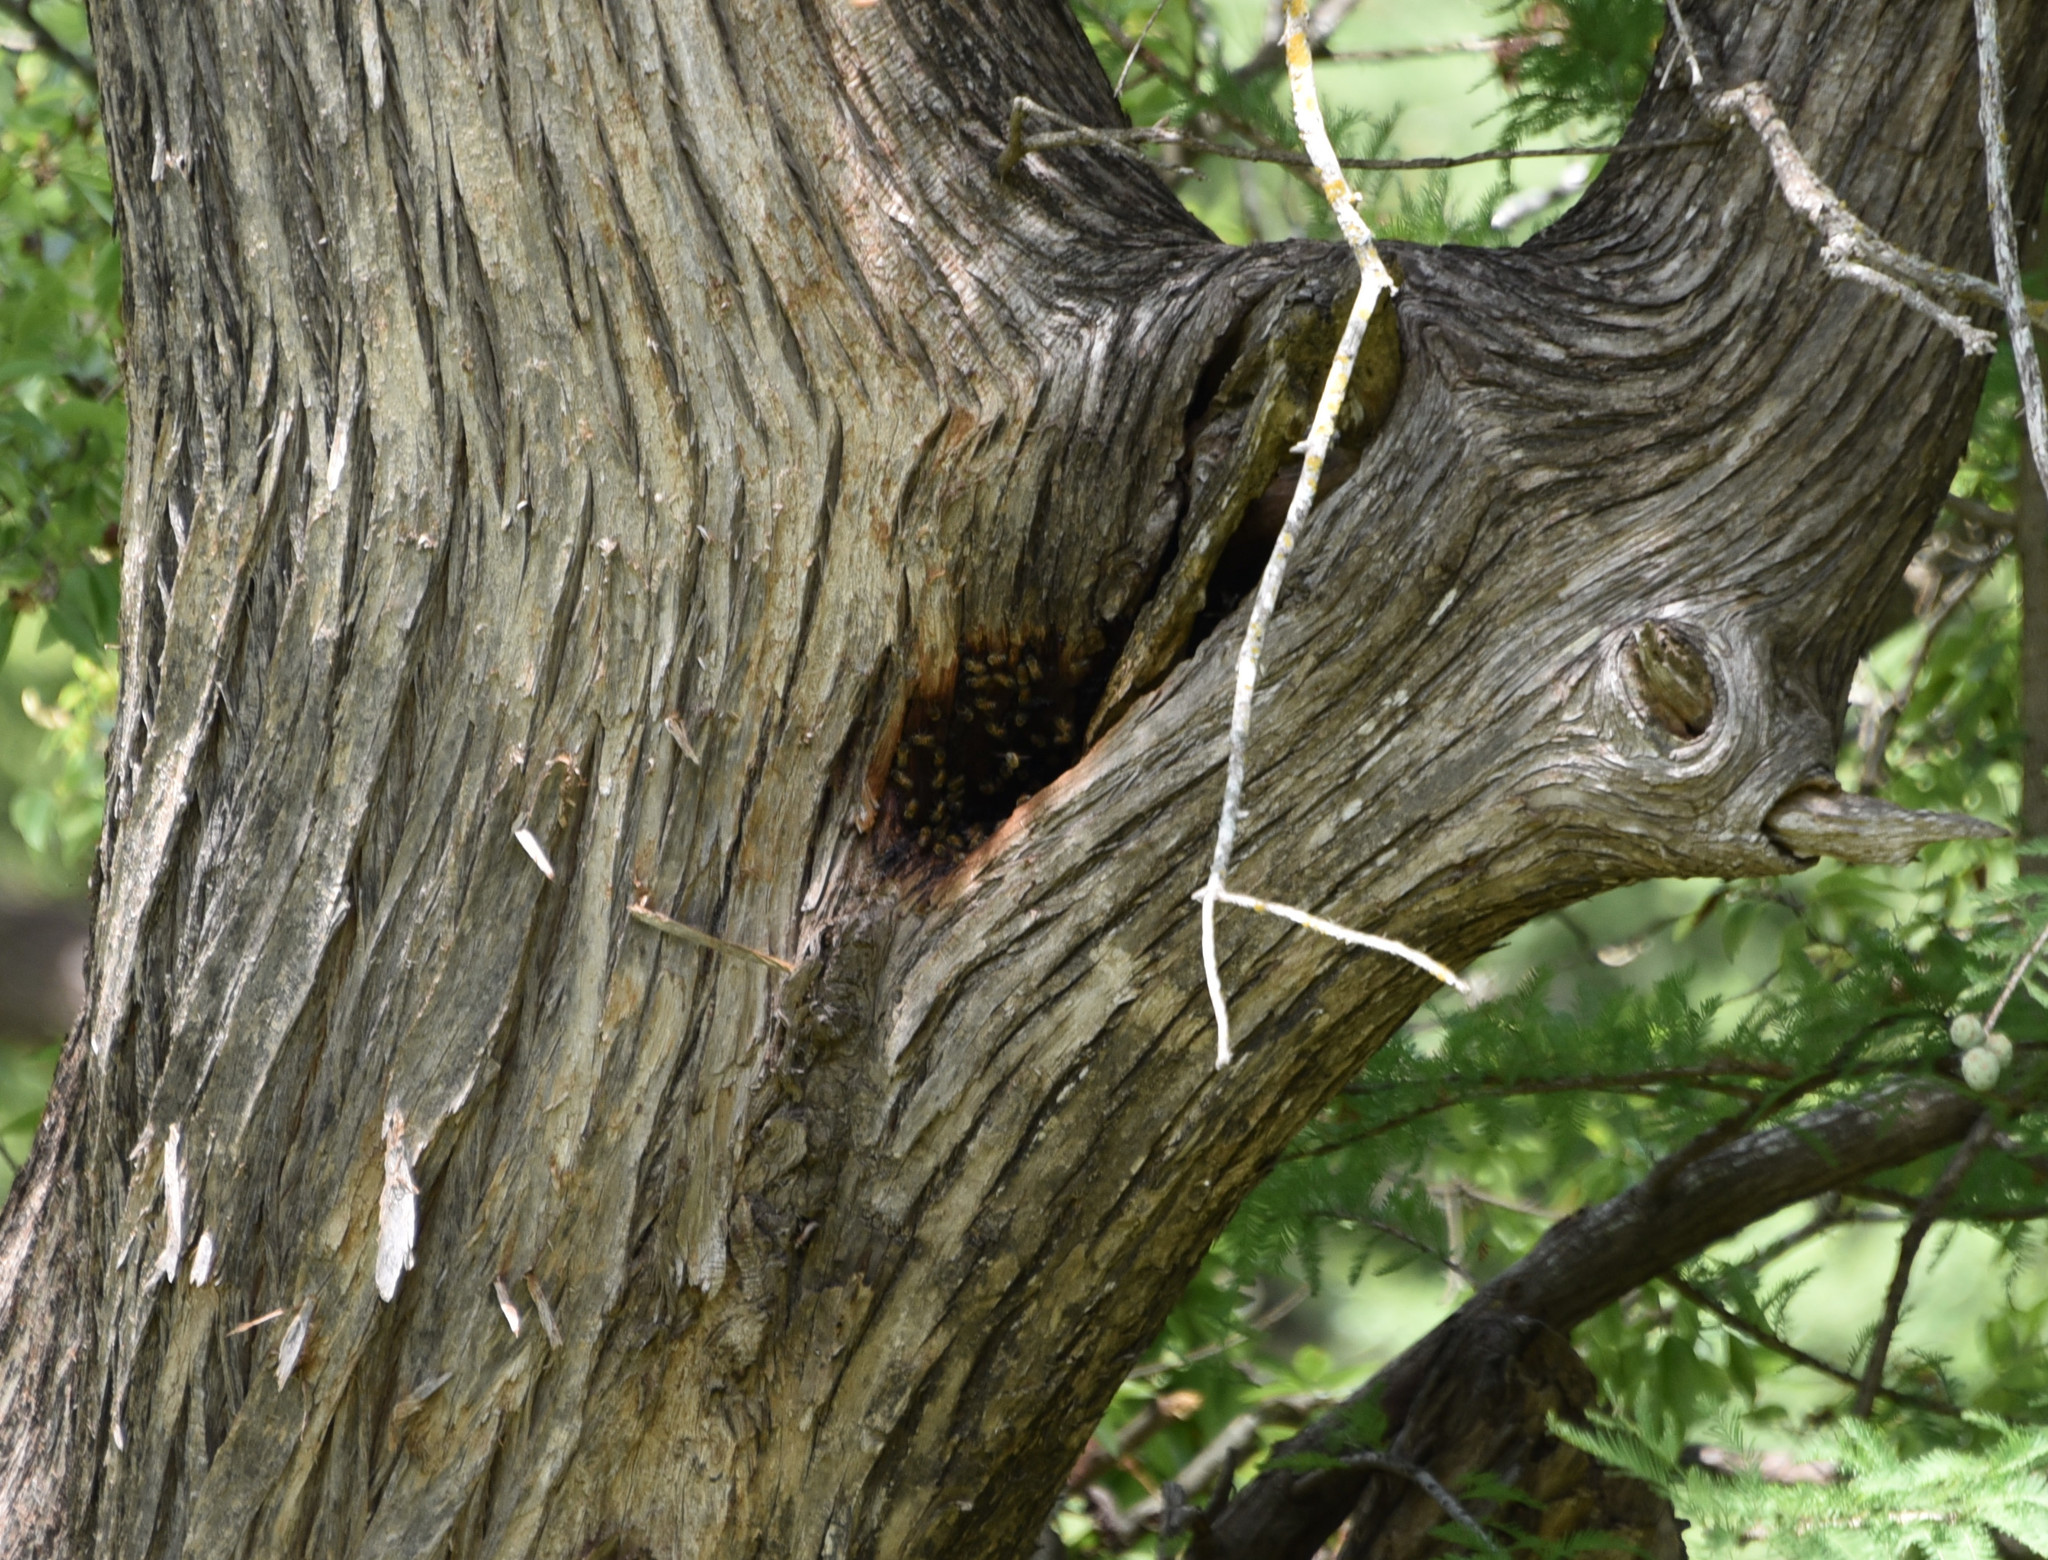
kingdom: Animalia
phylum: Arthropoda
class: Insecta
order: Hymenoptera
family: Apidae
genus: Apis
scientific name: Apis mellifera
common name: Honey bee
